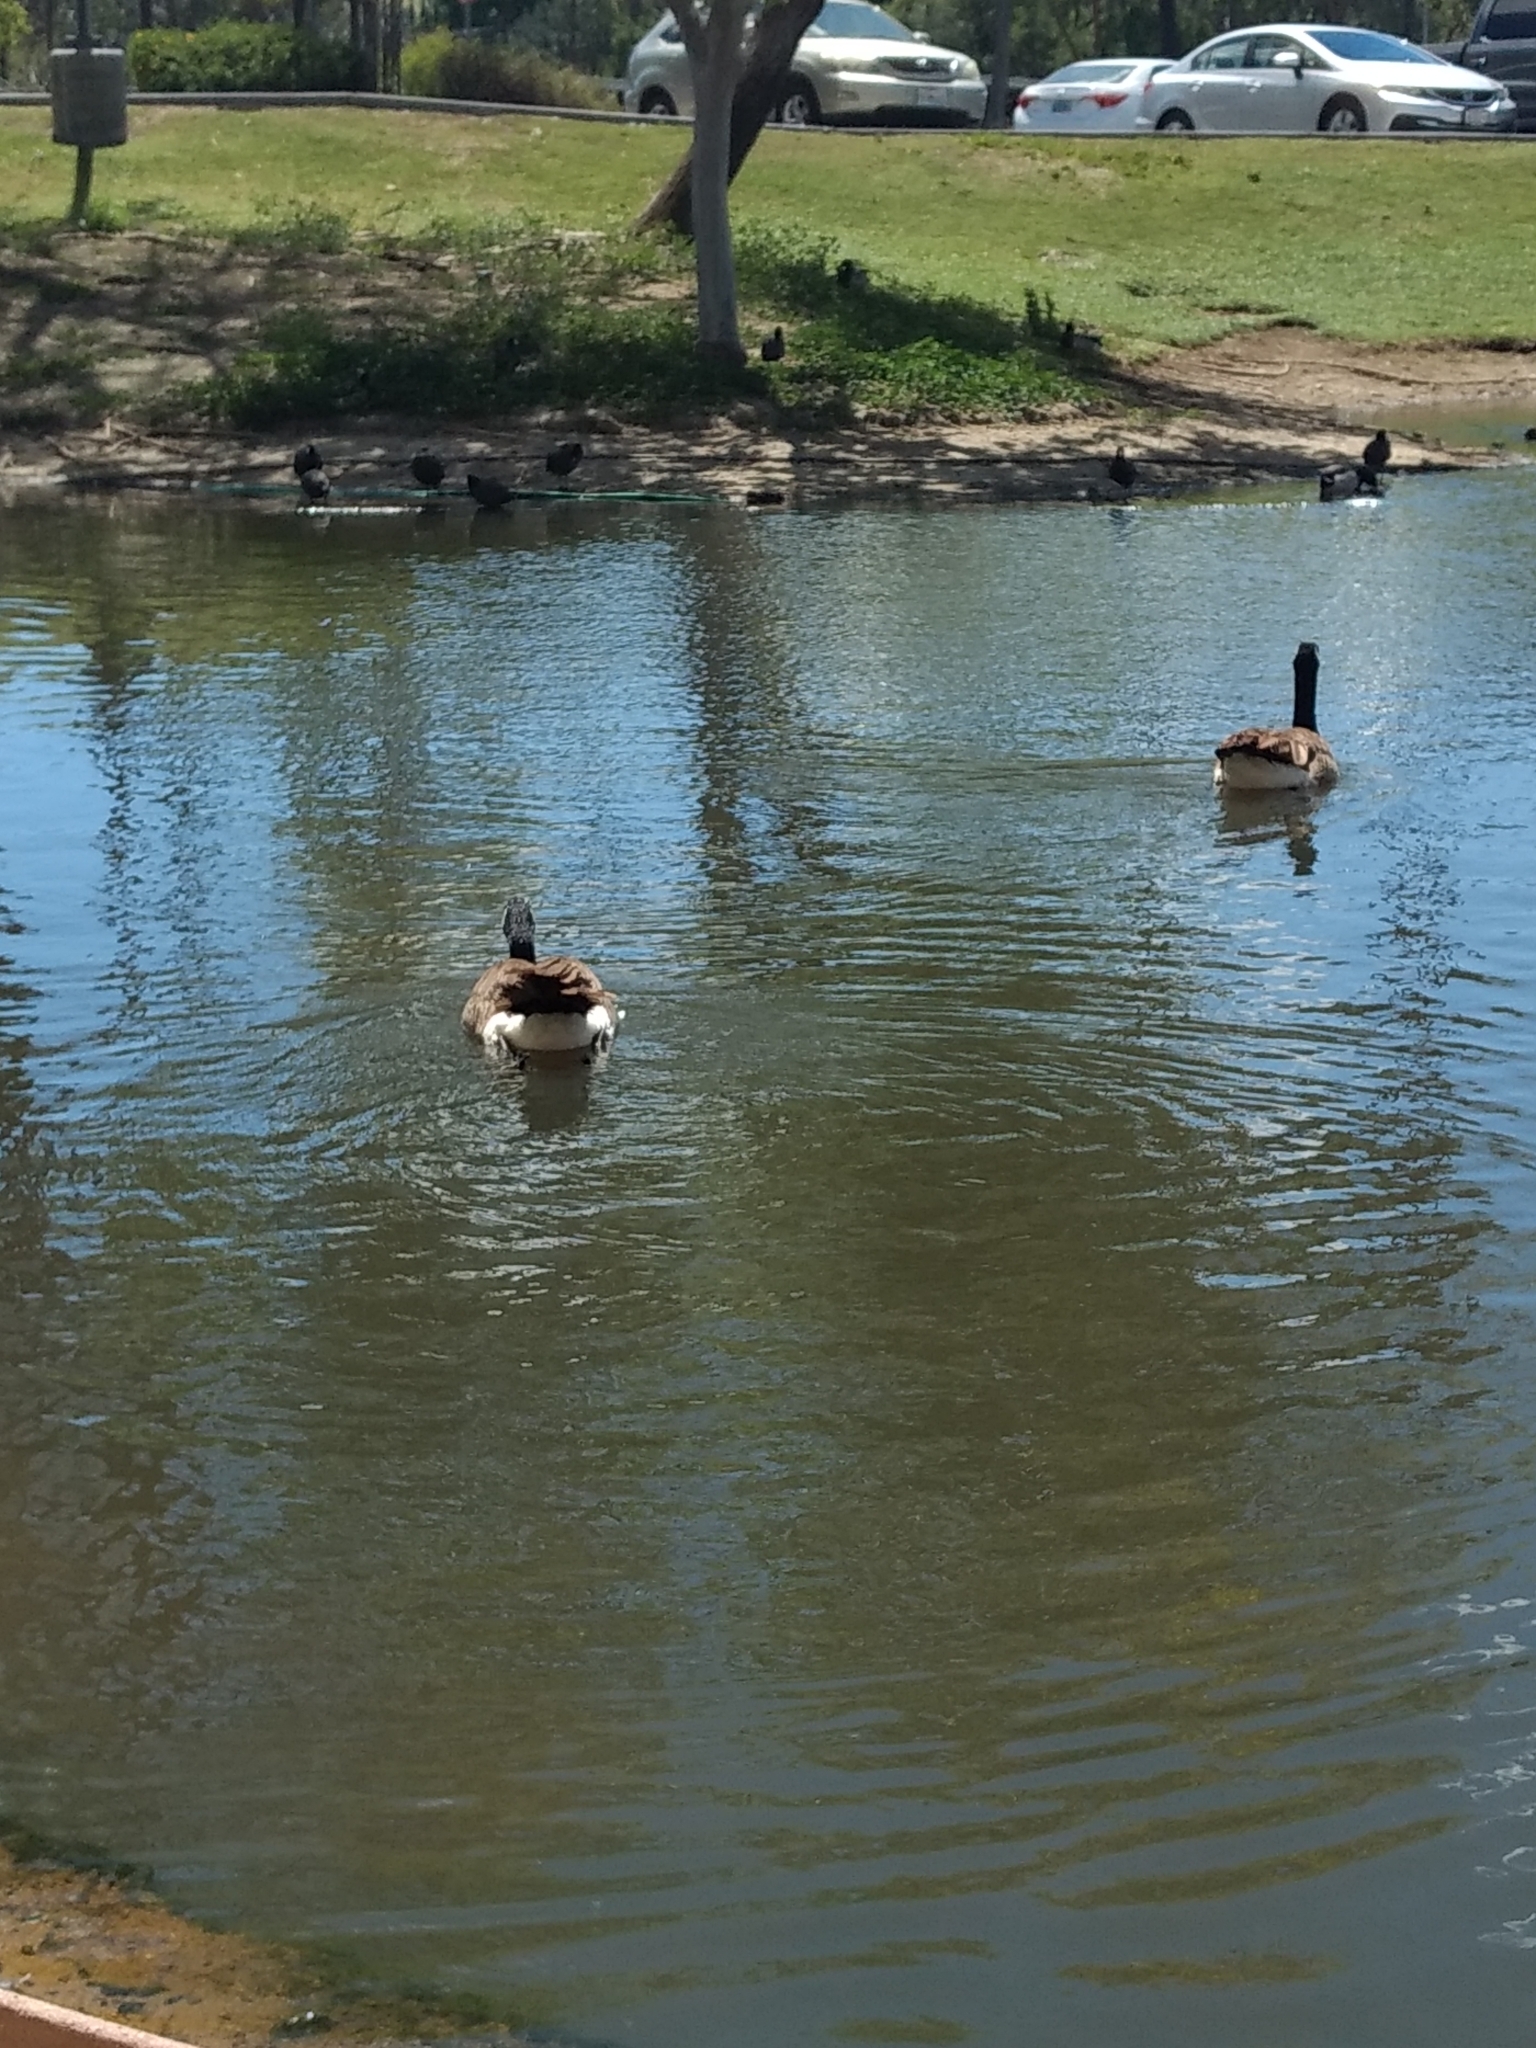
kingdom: Animalia
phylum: Chordata
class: Aves
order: Anseriformes
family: Anatidae
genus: Branta
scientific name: Branta canadensis
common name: Canada goose
